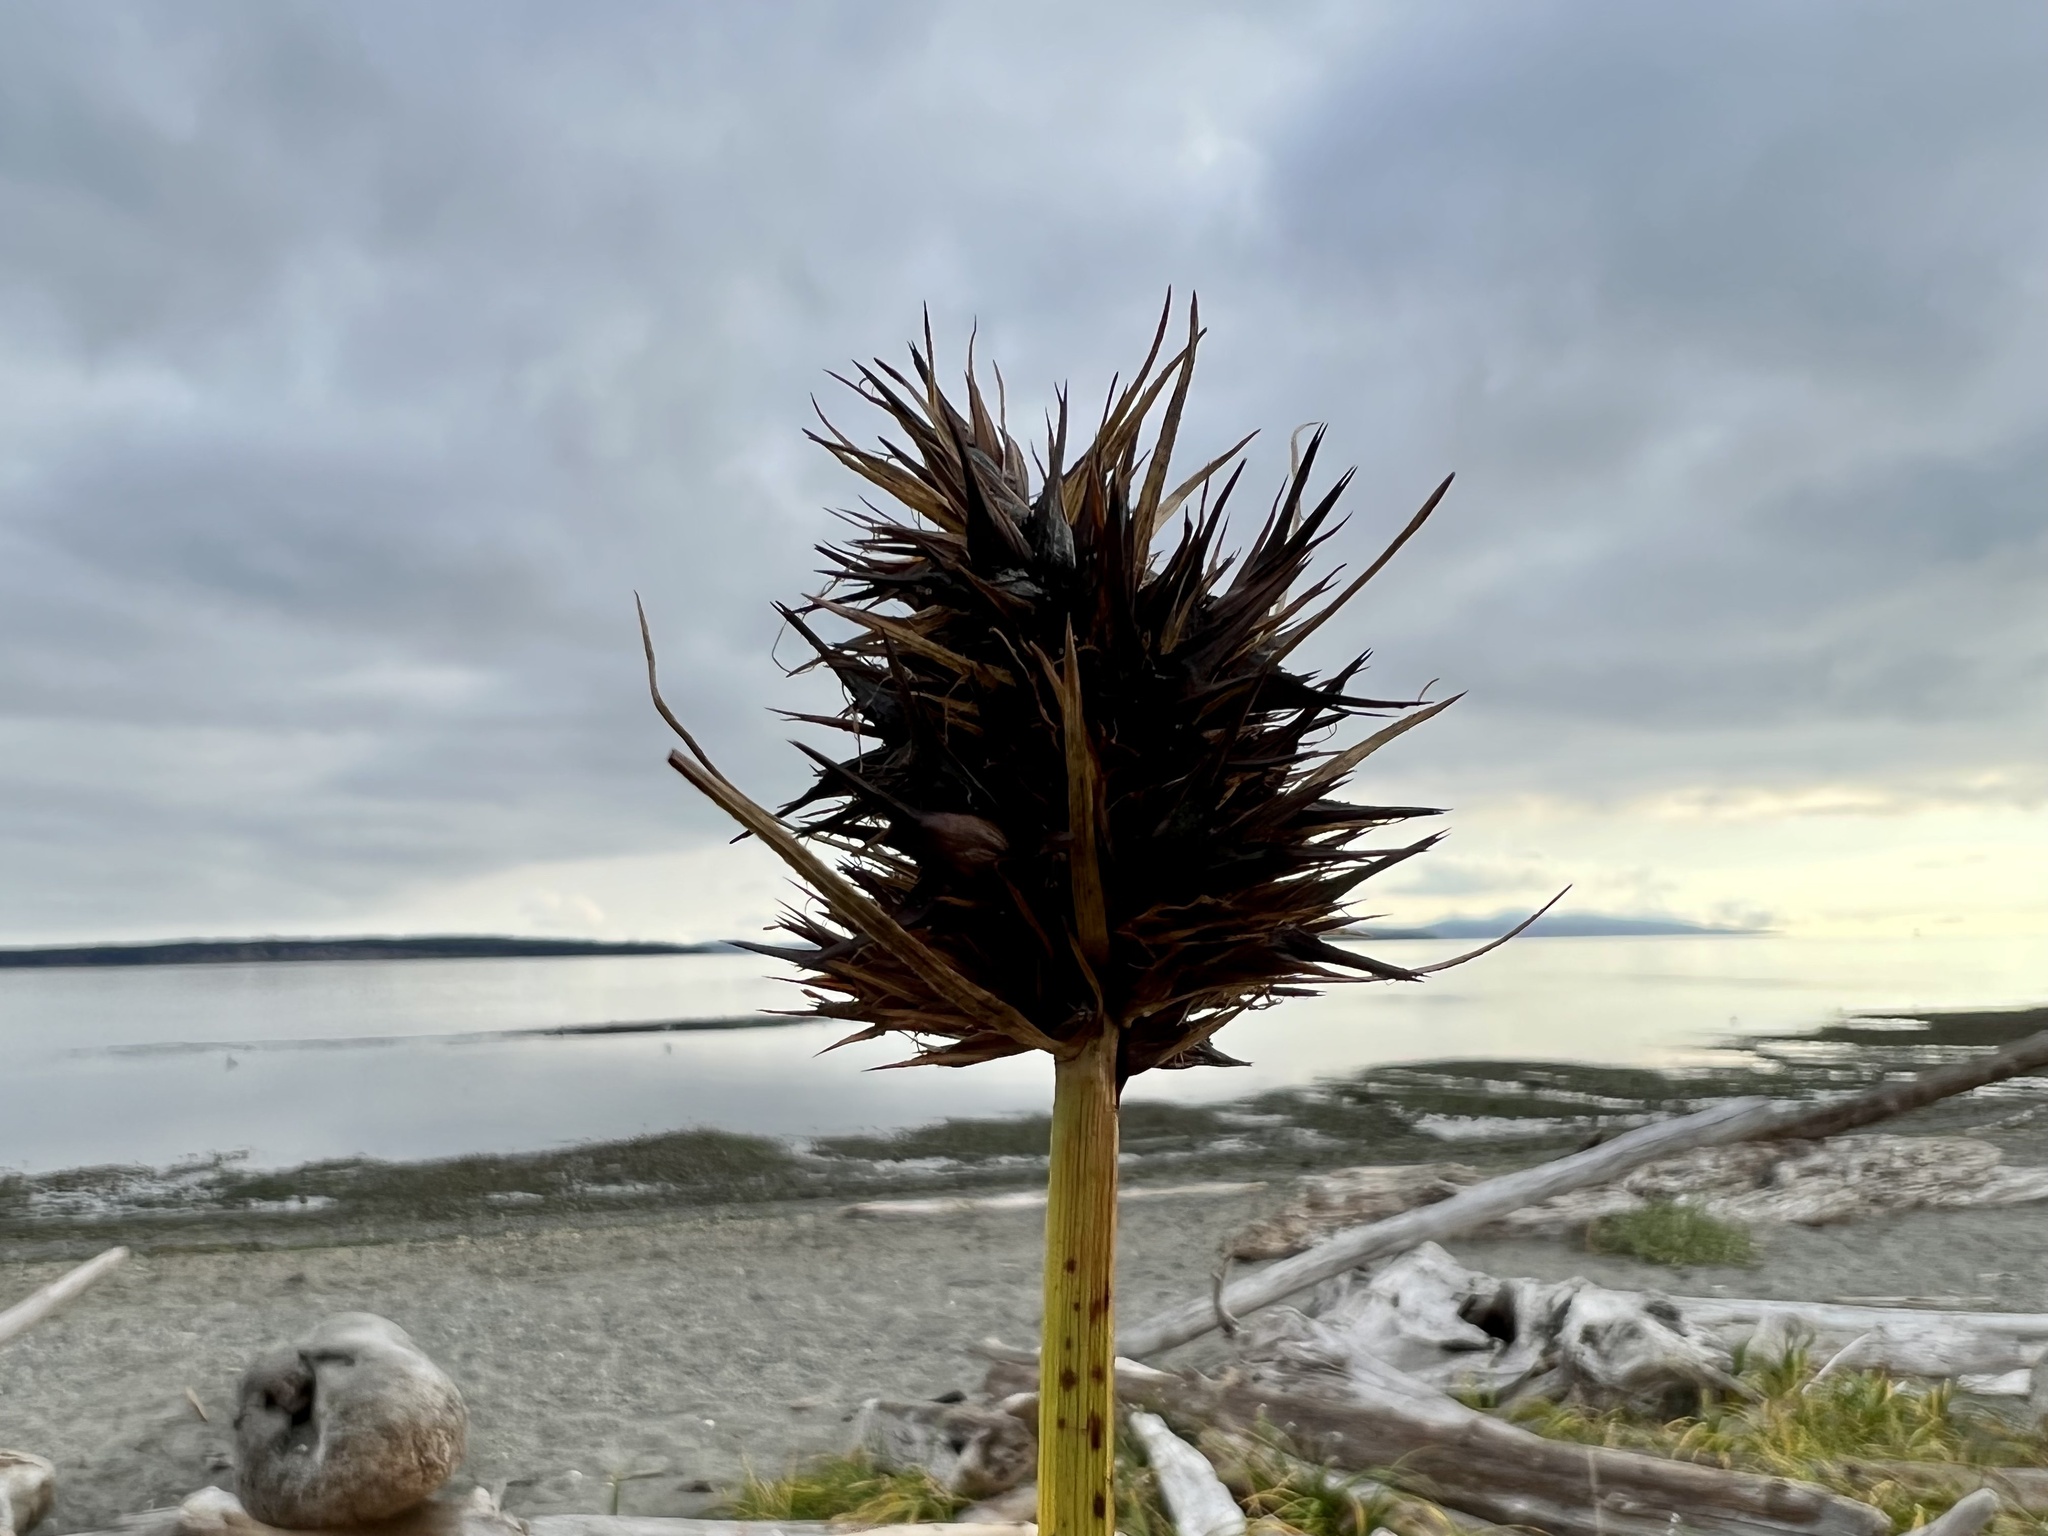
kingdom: Plantae
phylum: Tracheophyta
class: Liliopsida
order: Poales
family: Cyperaceae
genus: Carex
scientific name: Carex macrocephala
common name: Large-head sedge
